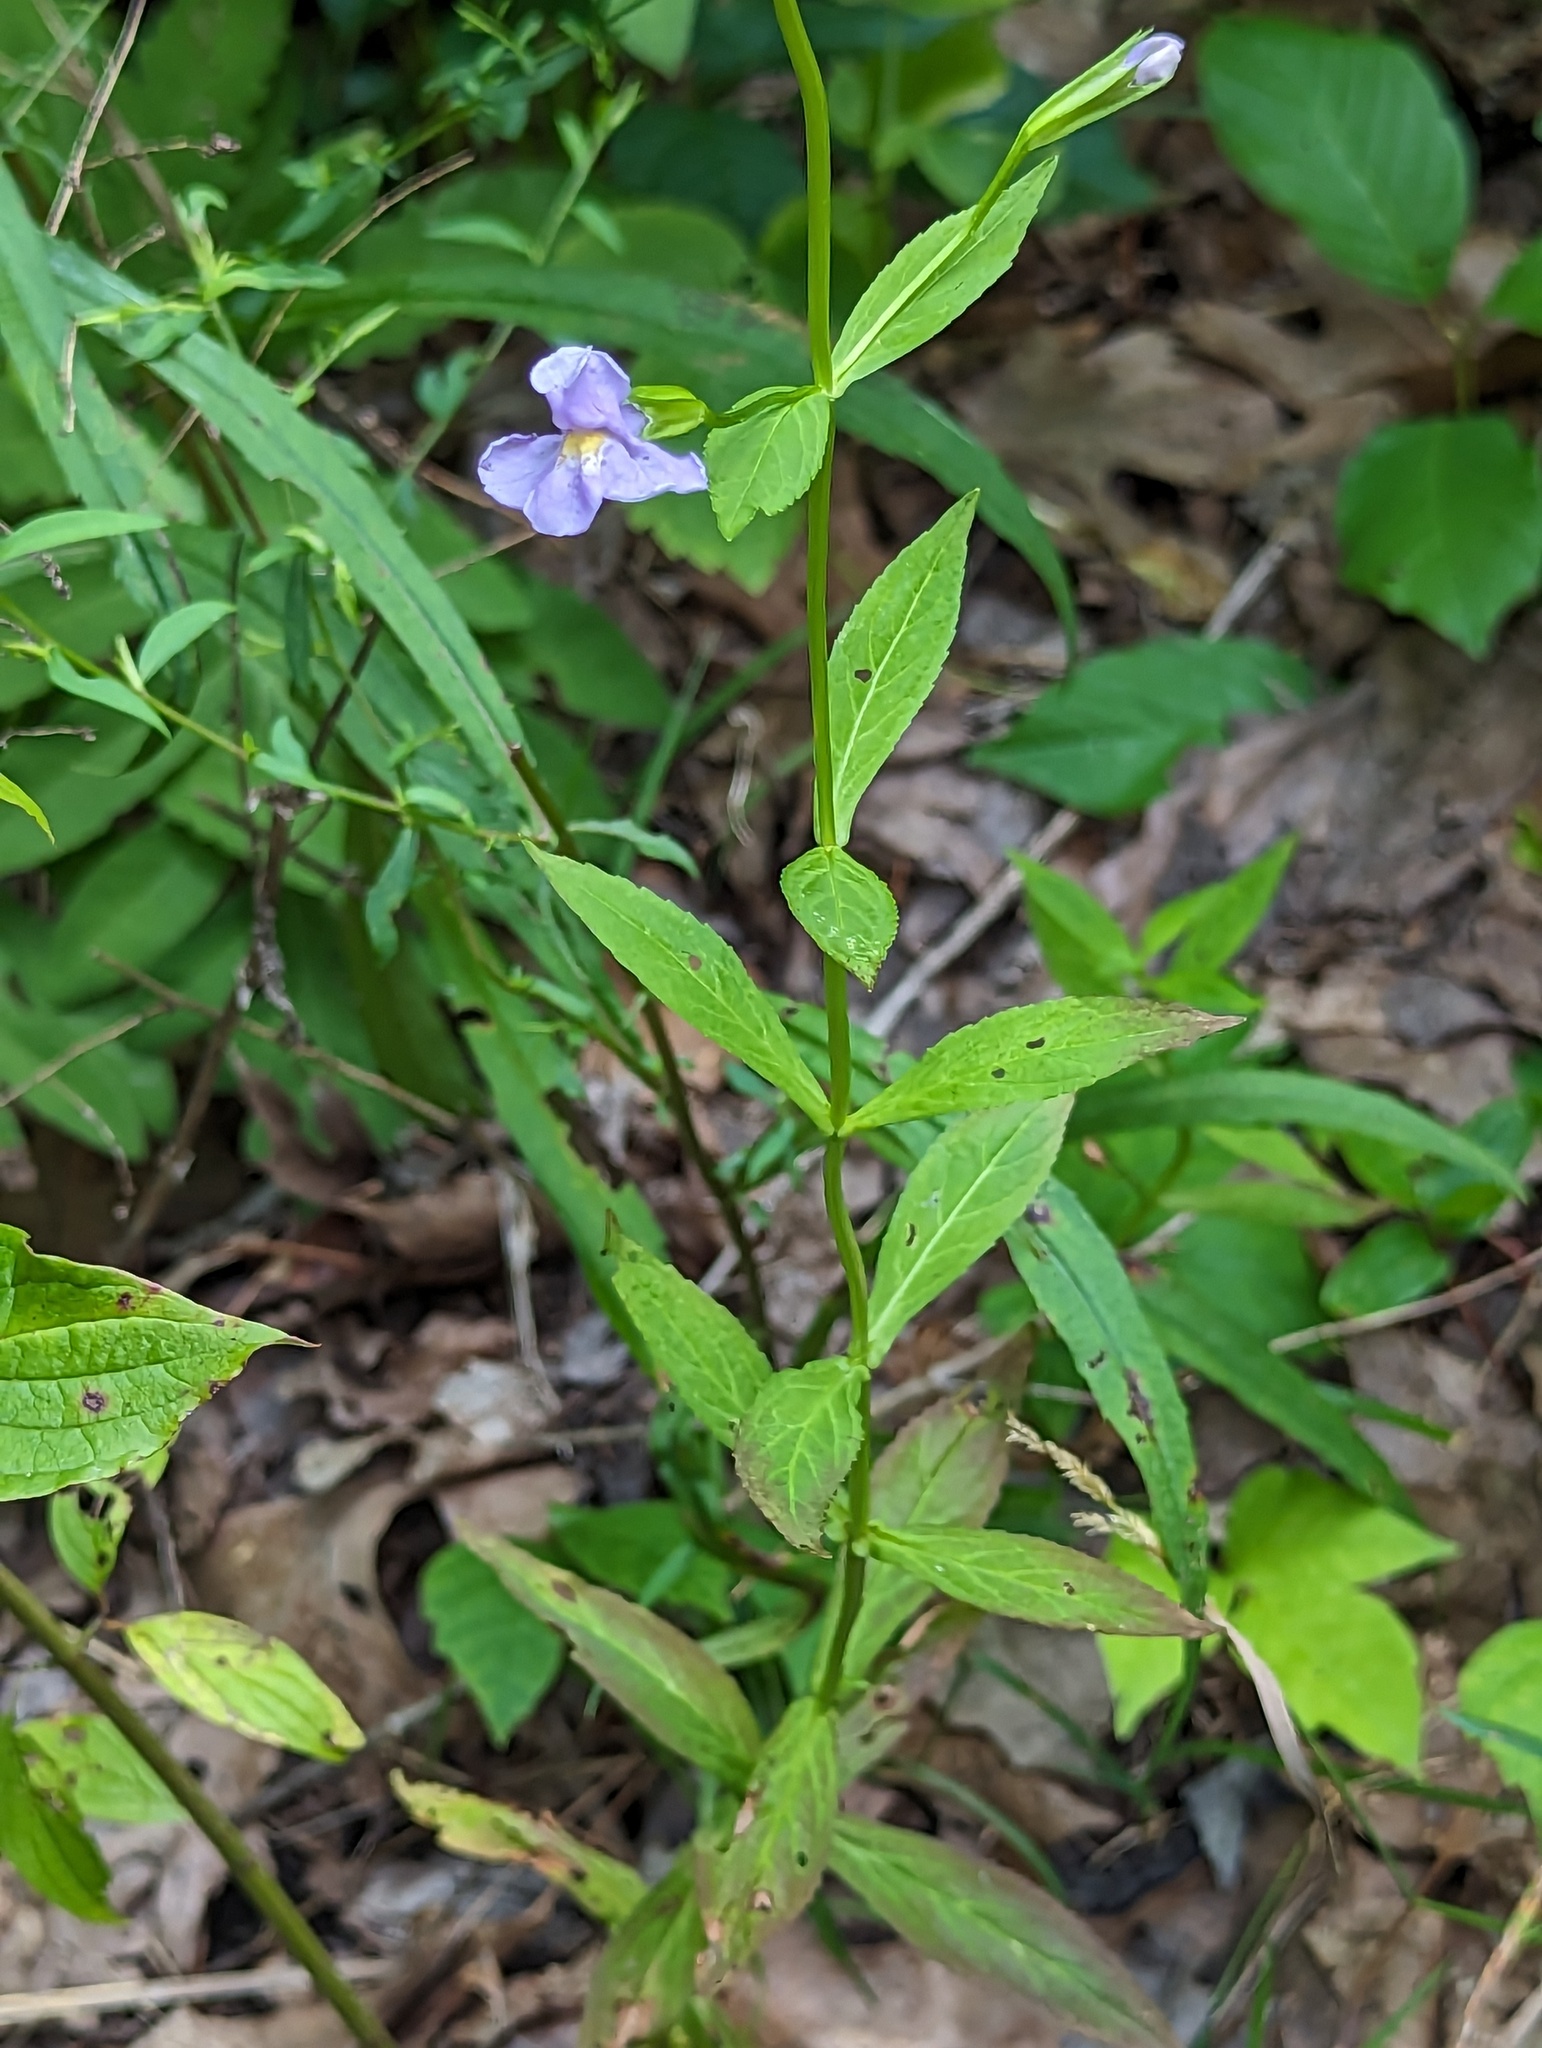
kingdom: Plantae
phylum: Tracheophyta
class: Magnoliopsida
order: Lamiales
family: Phrymaceae
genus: Mimulus
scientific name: Mimulus alatus
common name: Sharp-wing monkey-flower
